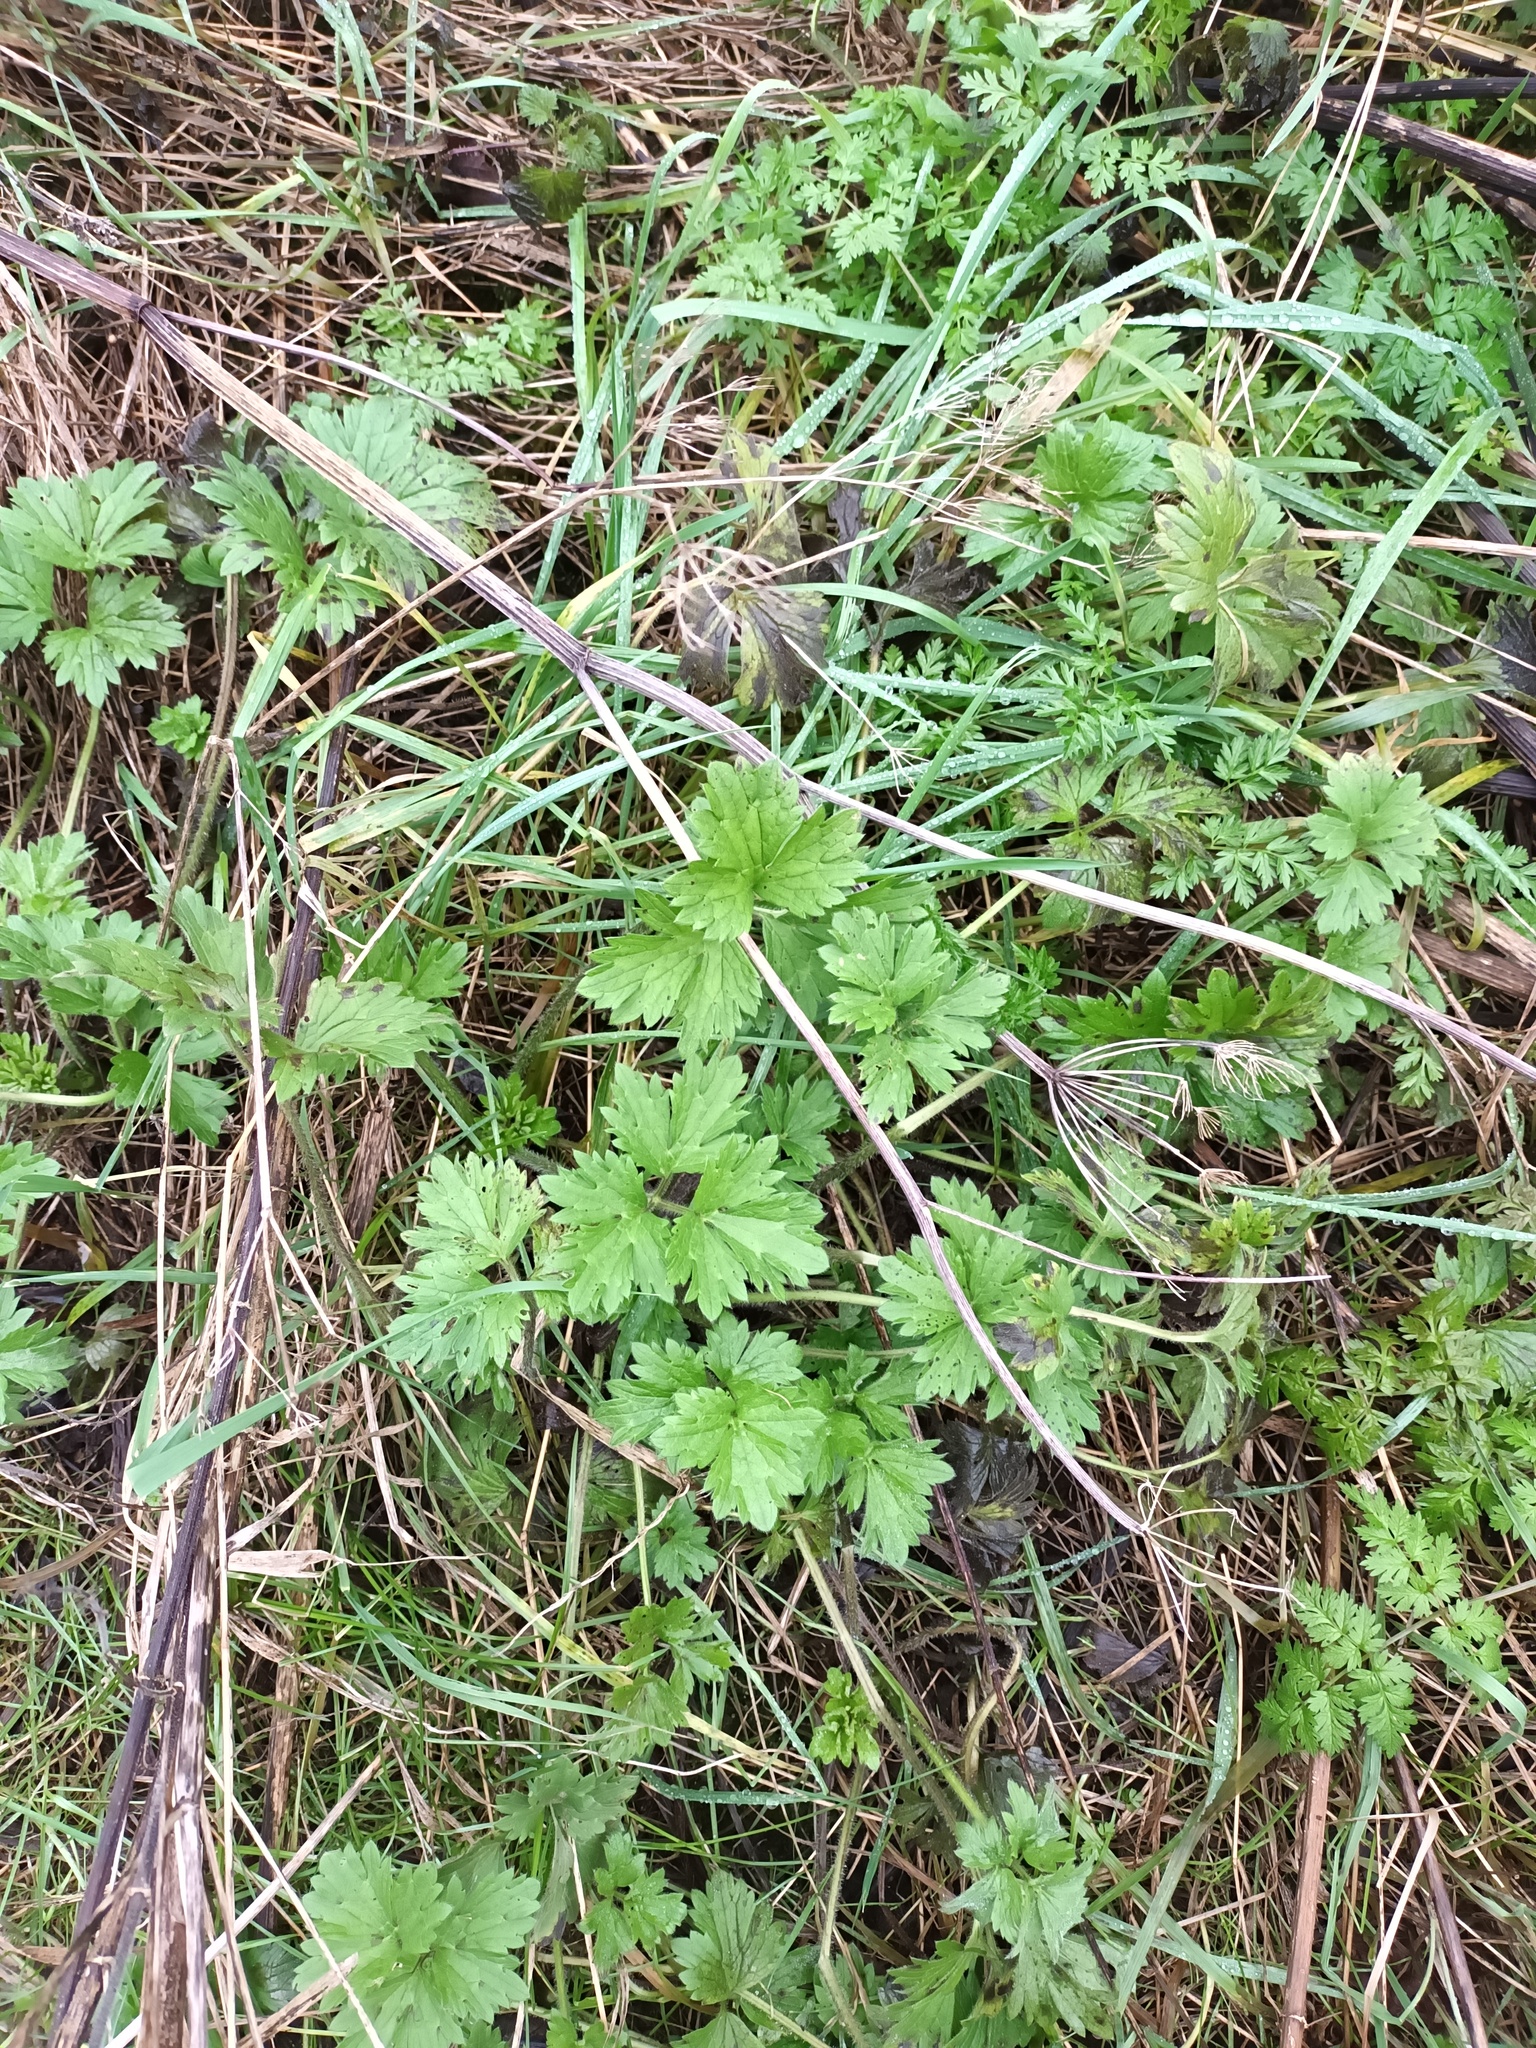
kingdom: Plantae
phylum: Tracheophyta
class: Magnoliopsida
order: Ranunculales
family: Ranunculaceae
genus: Ranunculus
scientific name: Ranunculus repens
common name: Creeping buttercup
